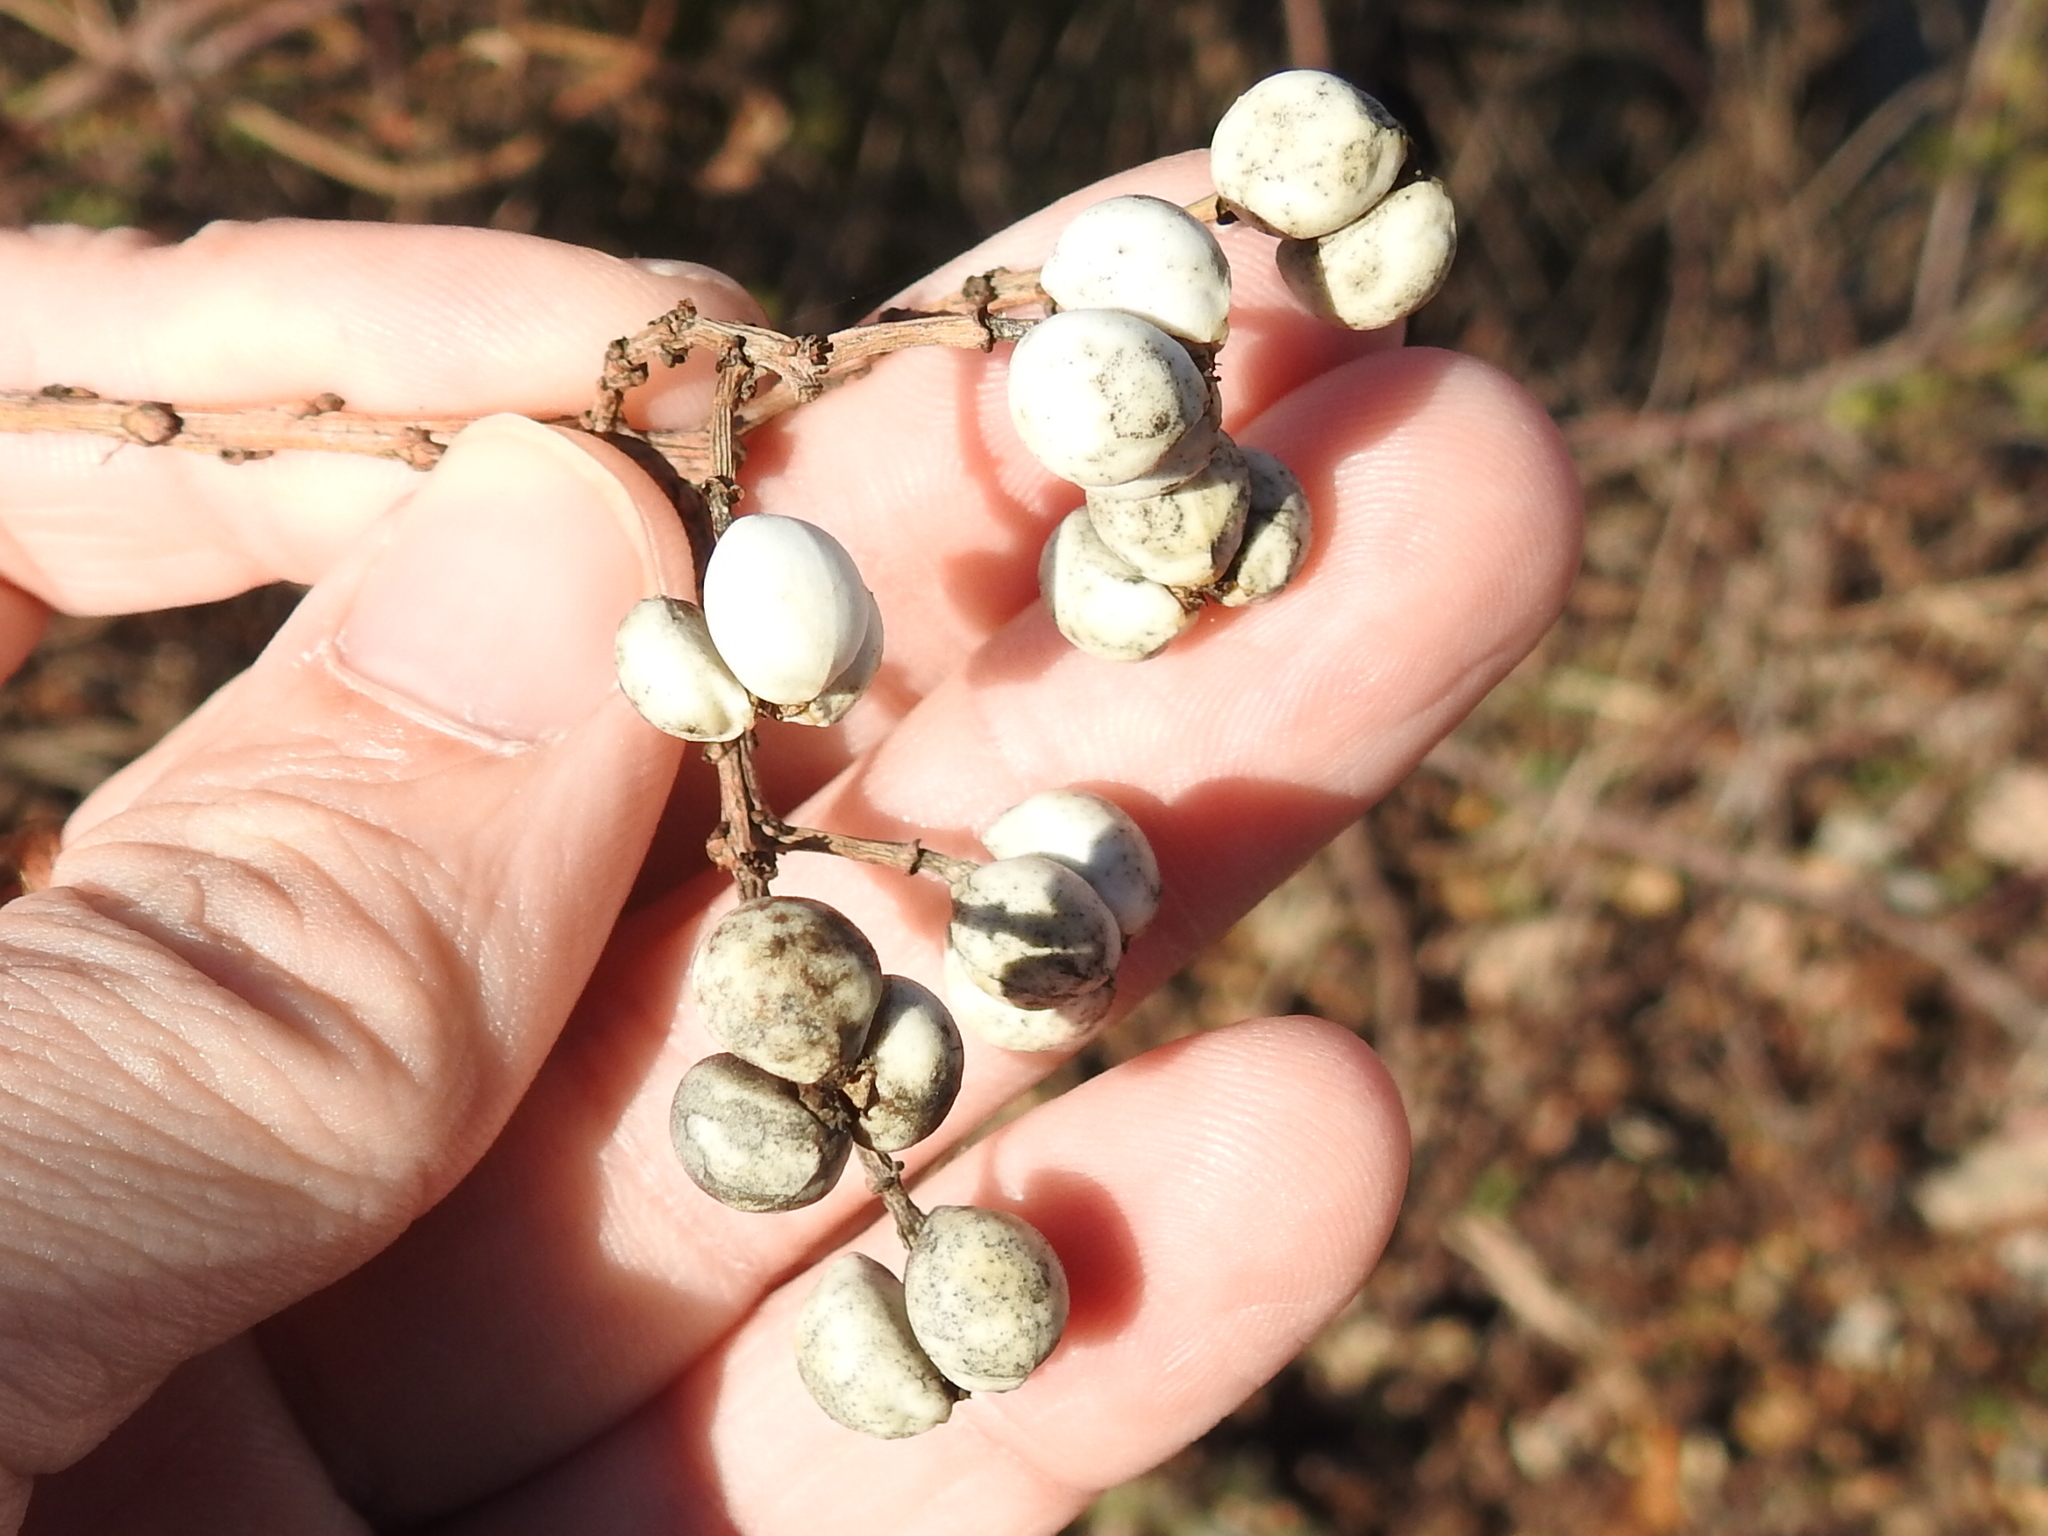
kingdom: Plantae
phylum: Tracheophyta
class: Magnoliopsida
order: Malpighiales
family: Euphorbiaceae
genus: Triadica
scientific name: Triadica sebifera
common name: Chinese tallow
